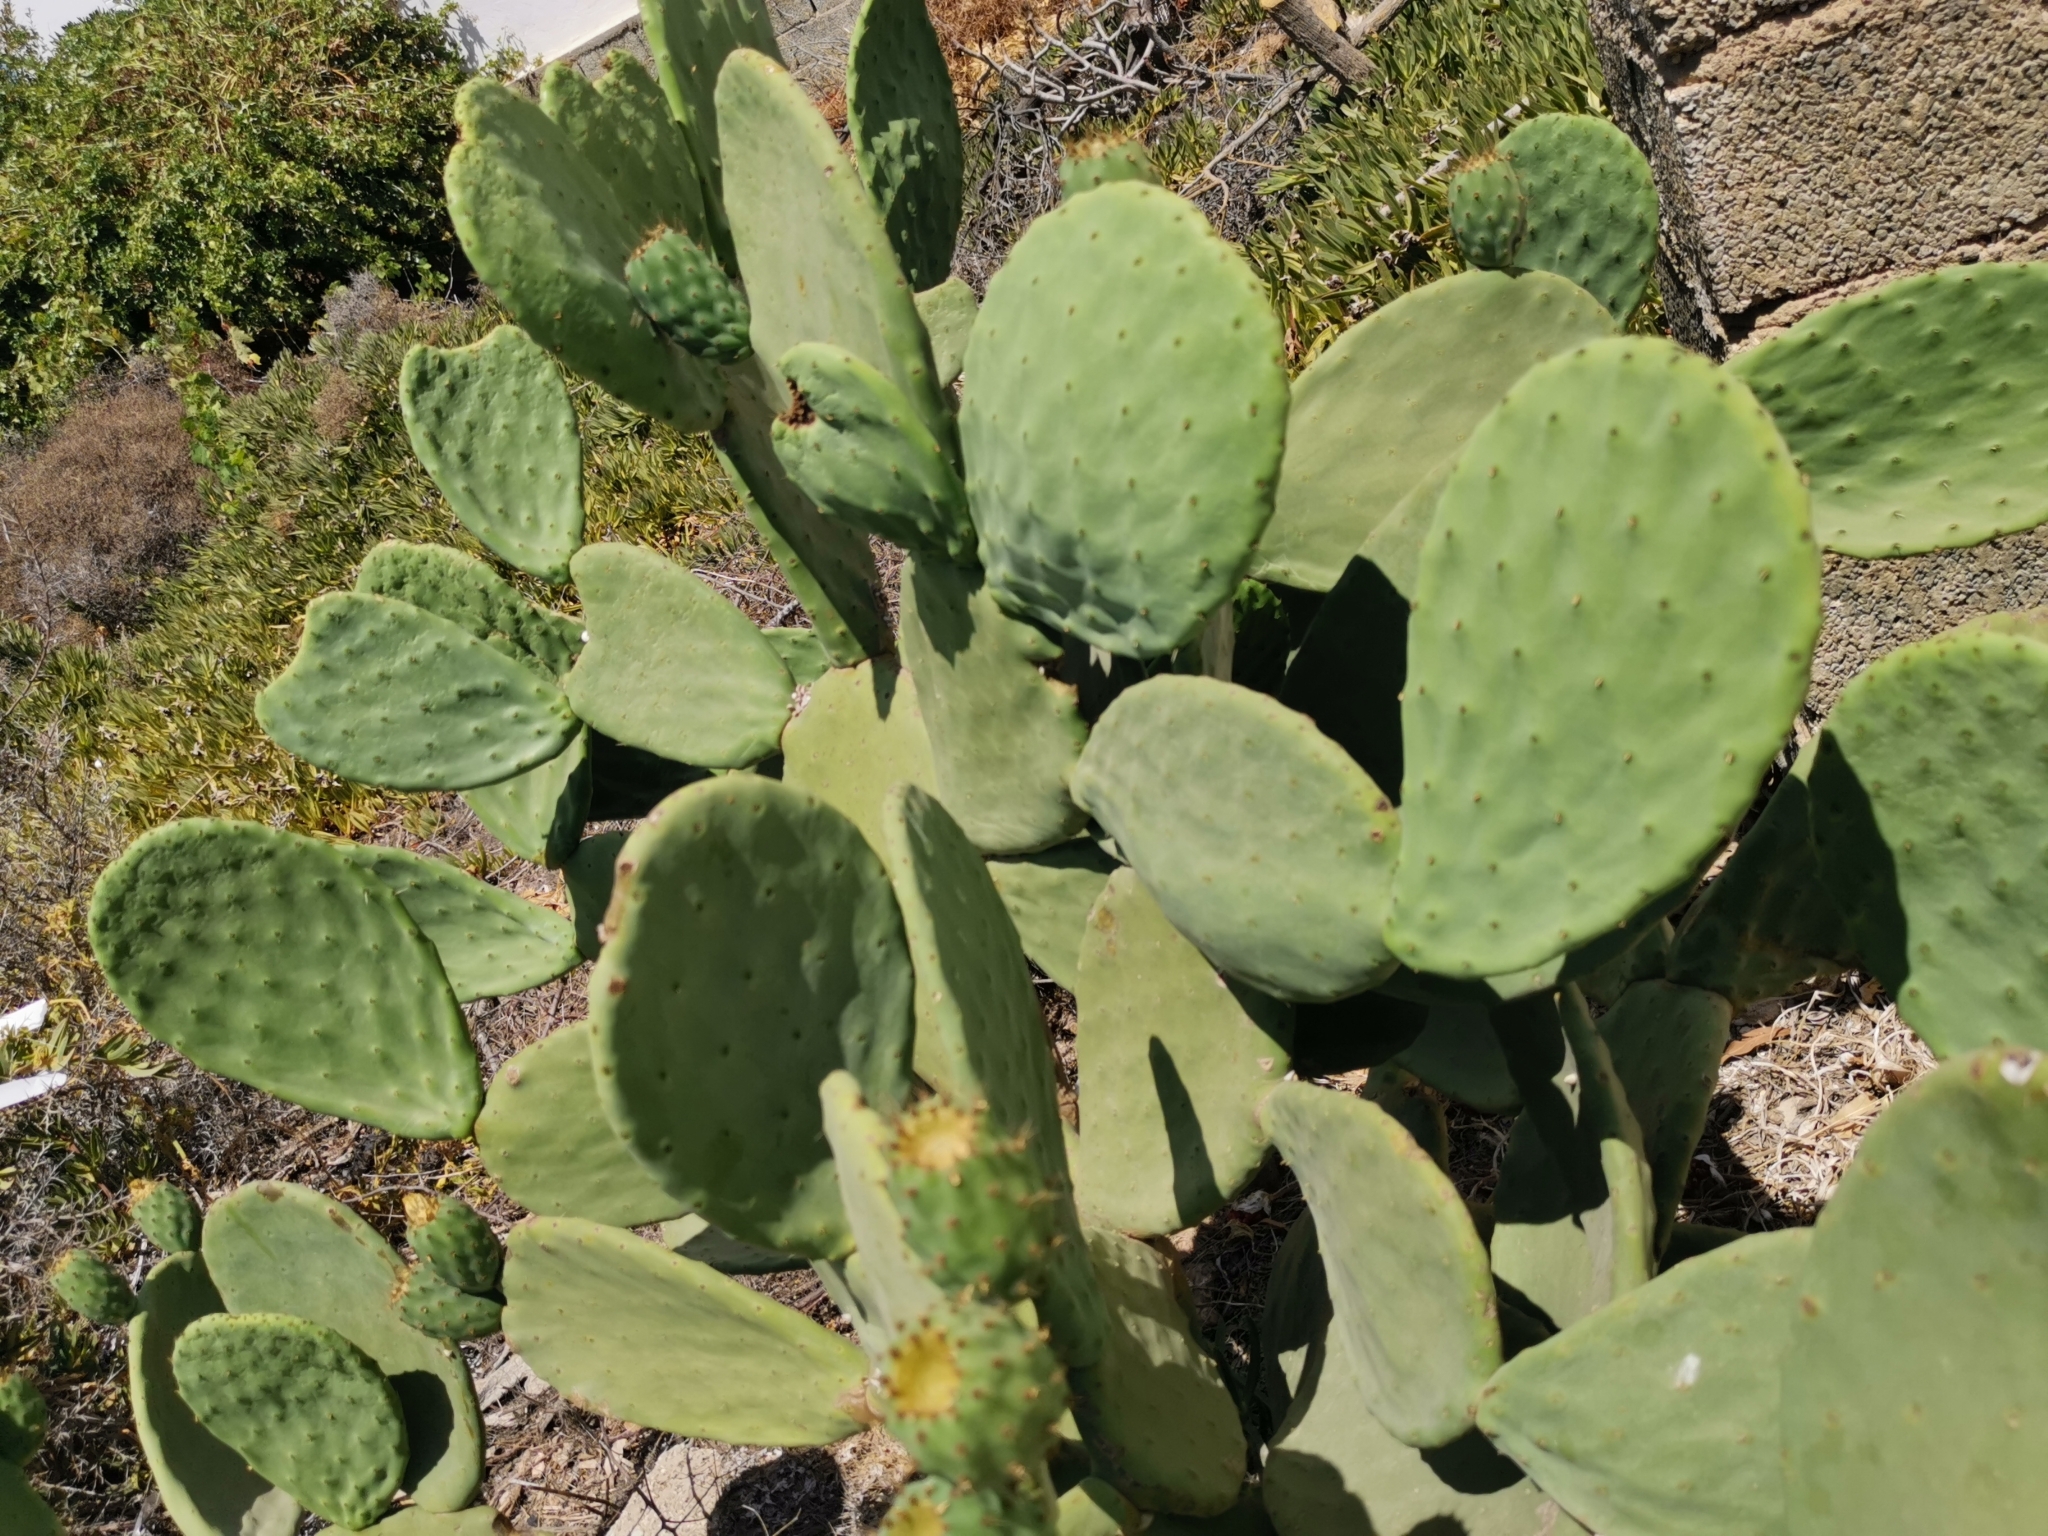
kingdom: Plantae
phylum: Tracheophyta
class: Magnoliopsida
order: Caryophyllales
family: Cactaceae
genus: Opuntia
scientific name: Opuntia ficus-indica
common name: Barbary fig
